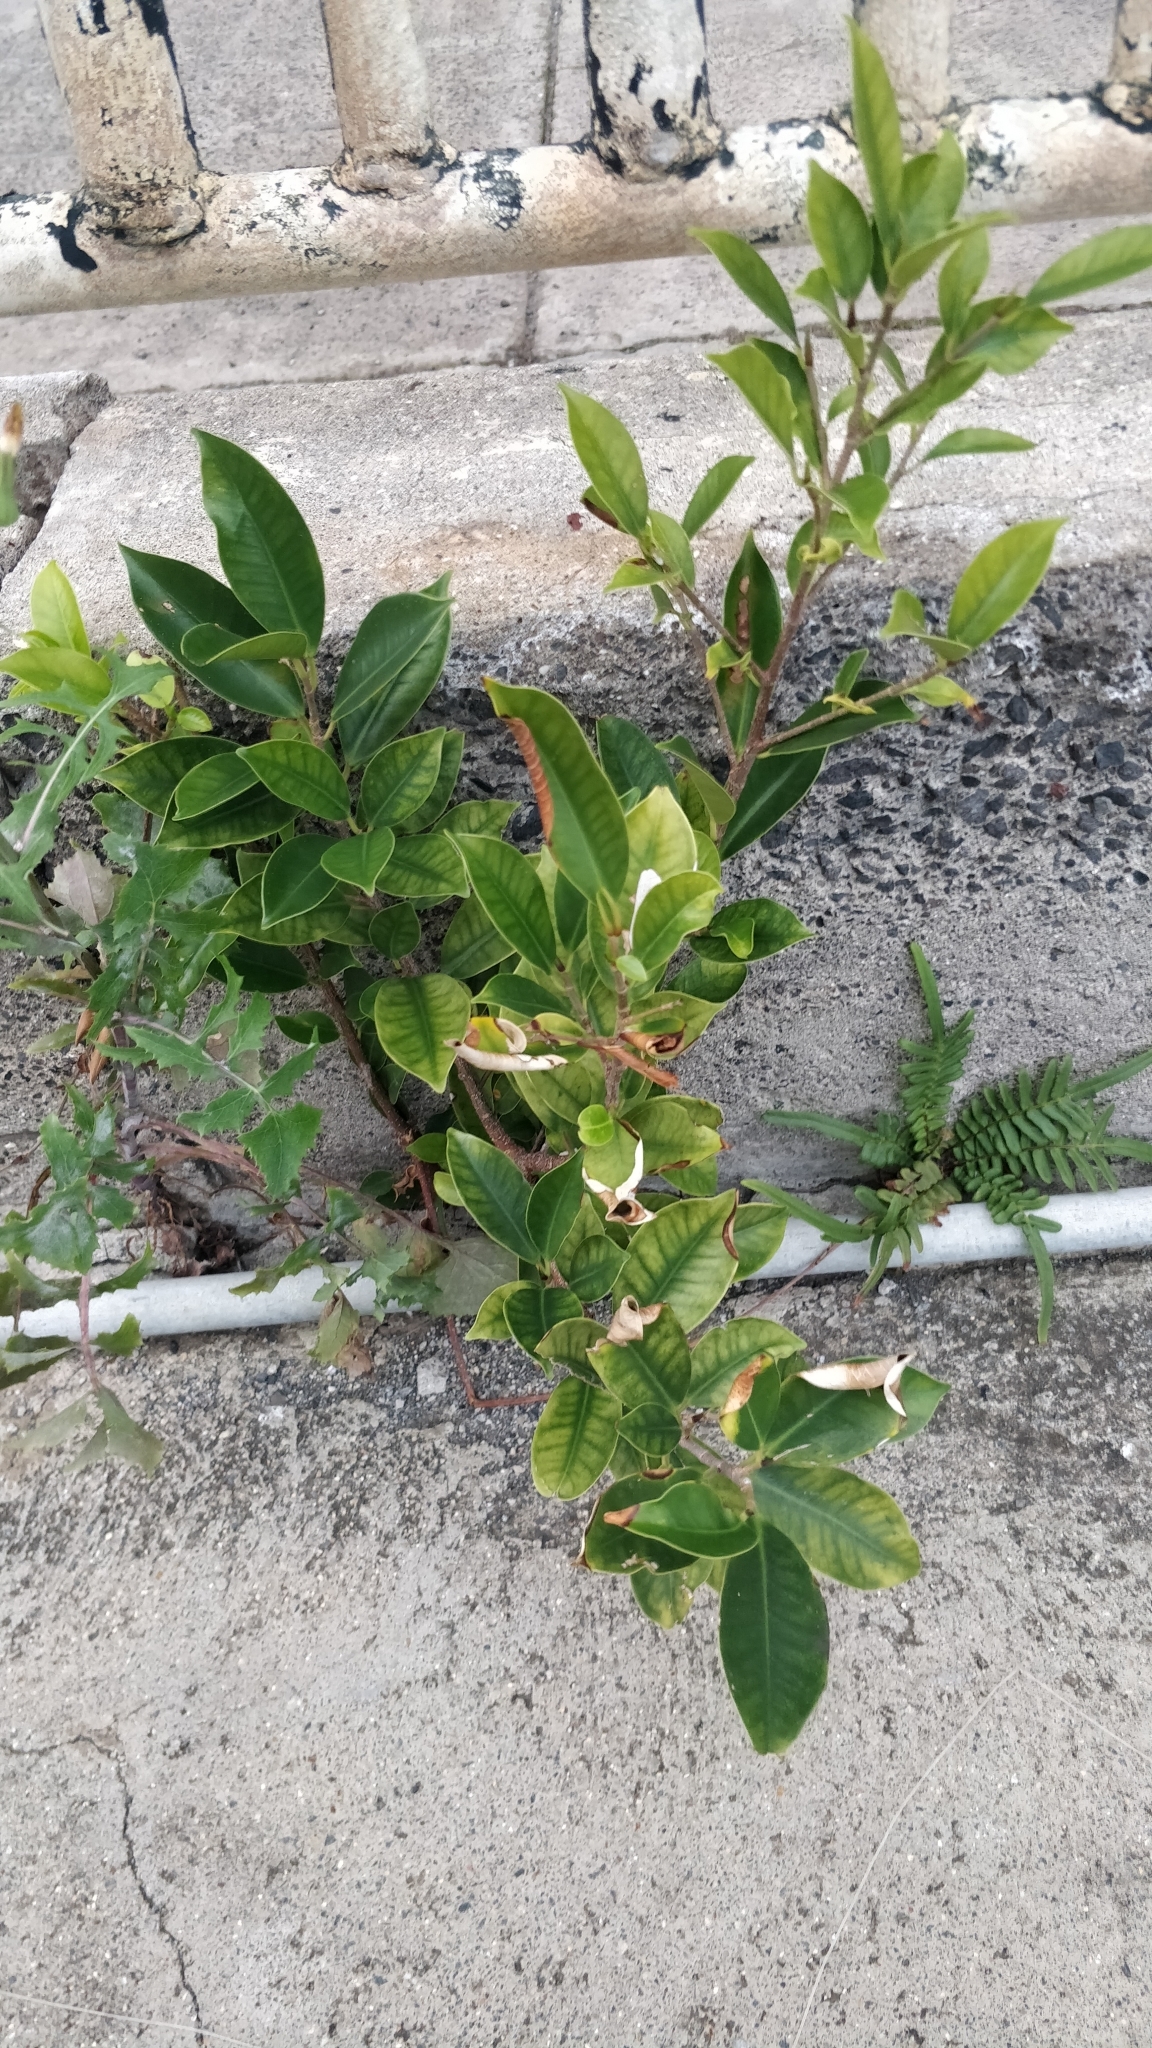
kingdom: Plantae
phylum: Tracheophyta
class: Magnoliopsida
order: Rosales
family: Moraceae
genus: Ficus
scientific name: Ficus benjamina
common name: Weeping fig
